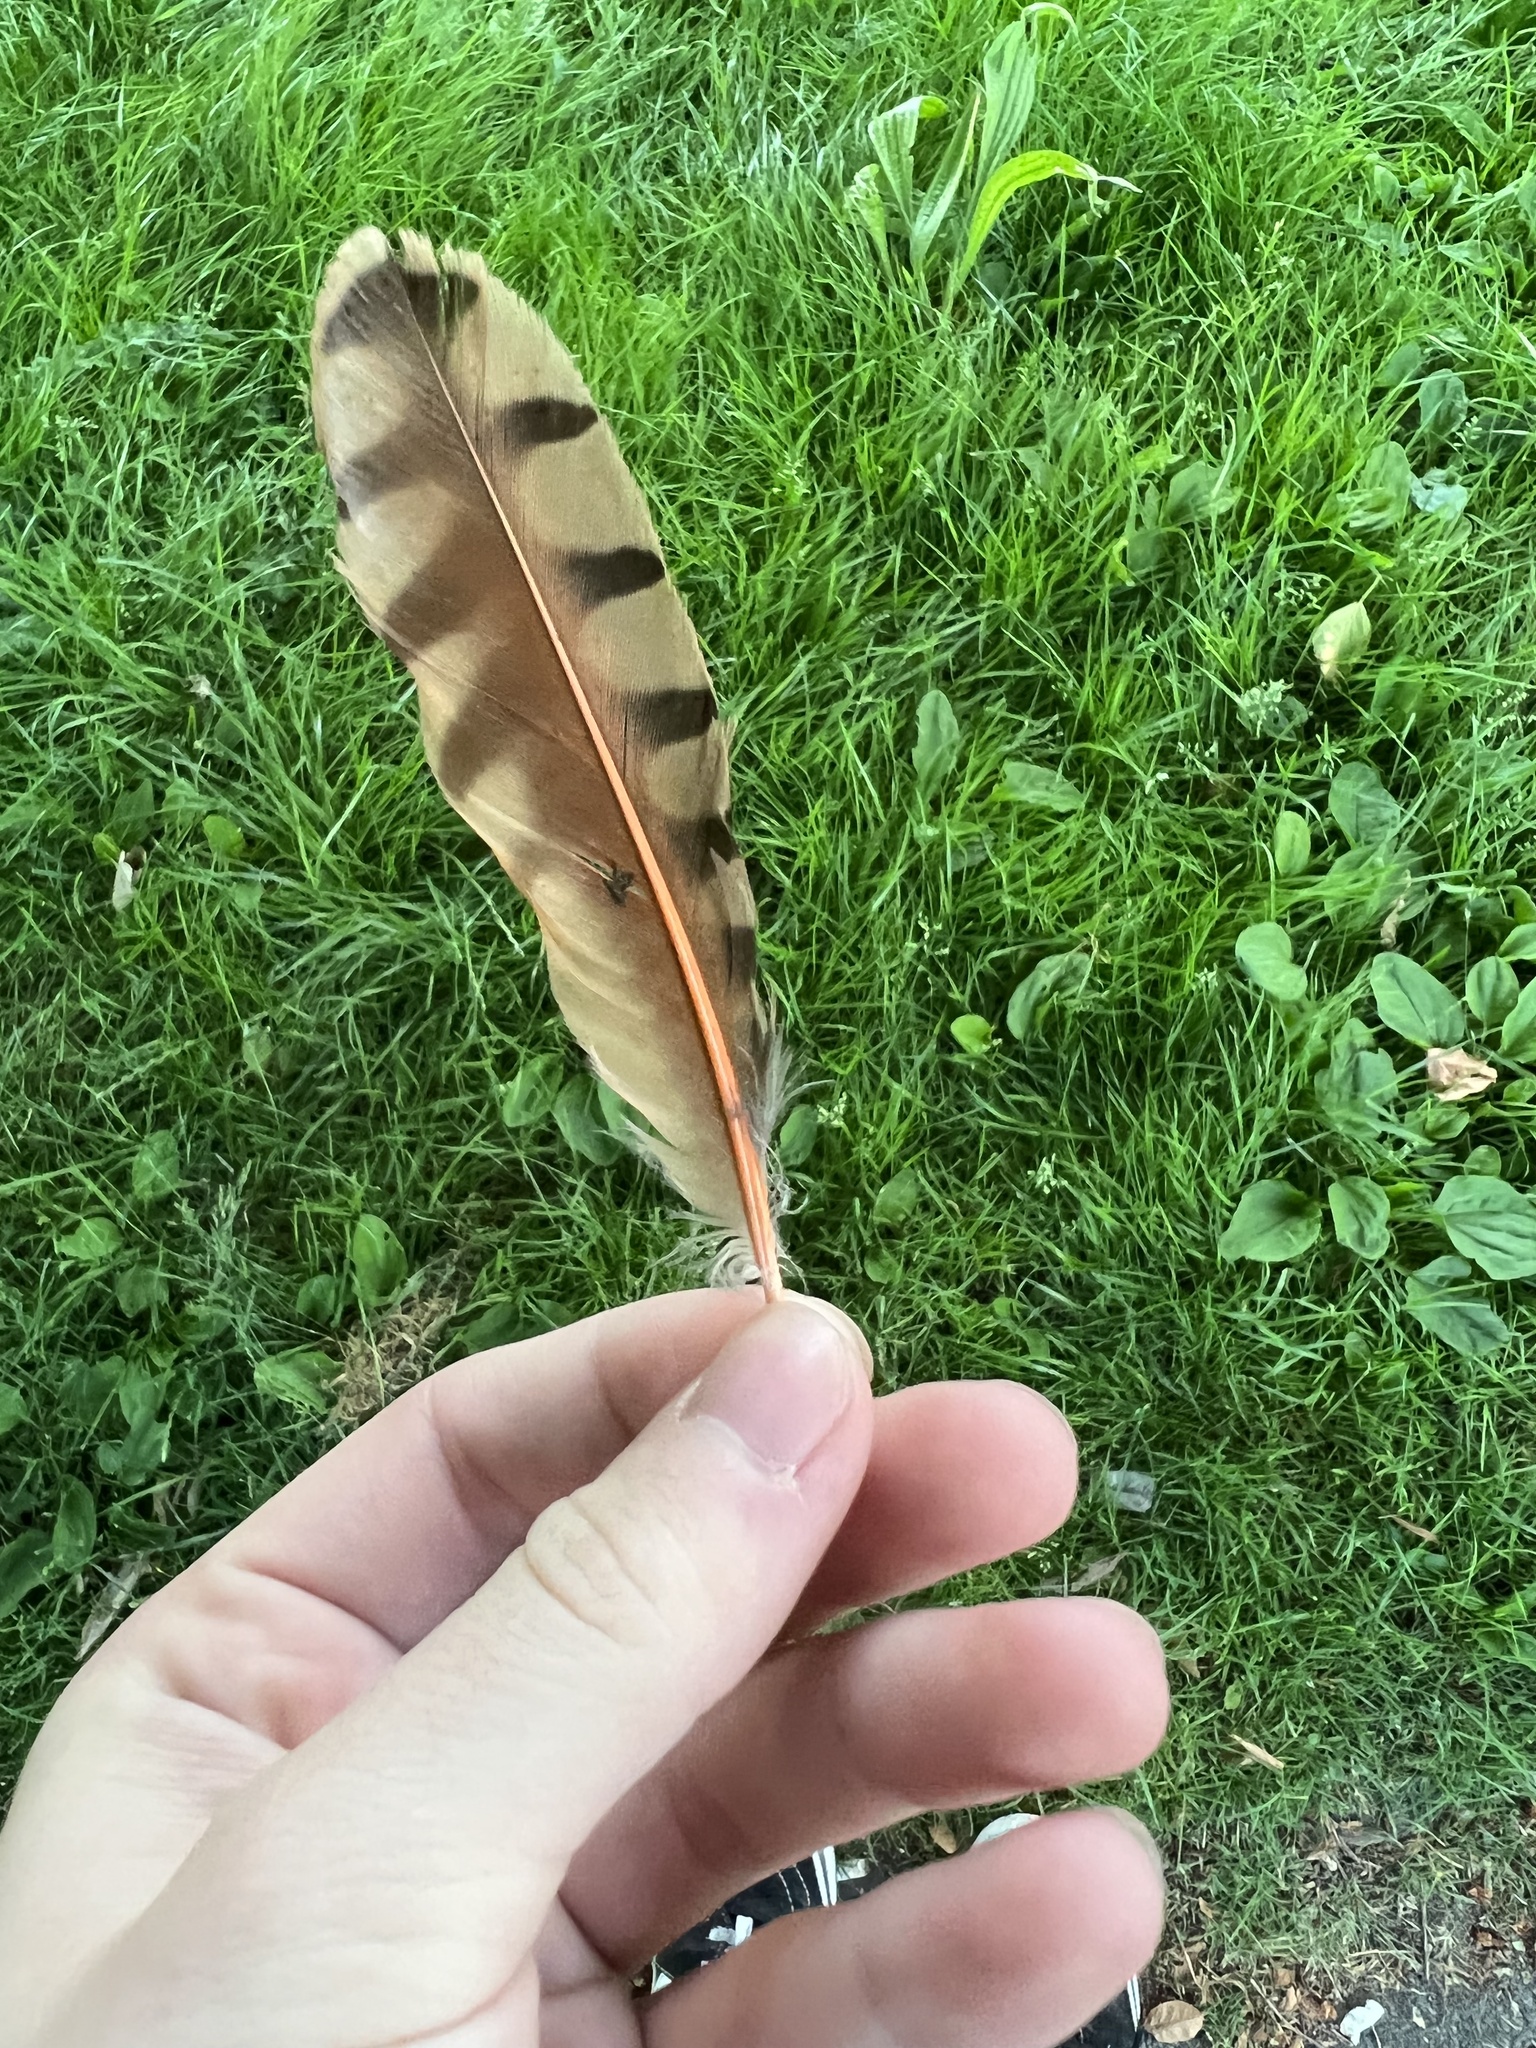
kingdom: Animalia
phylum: Chordata
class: Aves
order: Piciformes
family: Picidae
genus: Colaptes
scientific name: Colaptes auratus
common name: Northern flicker
